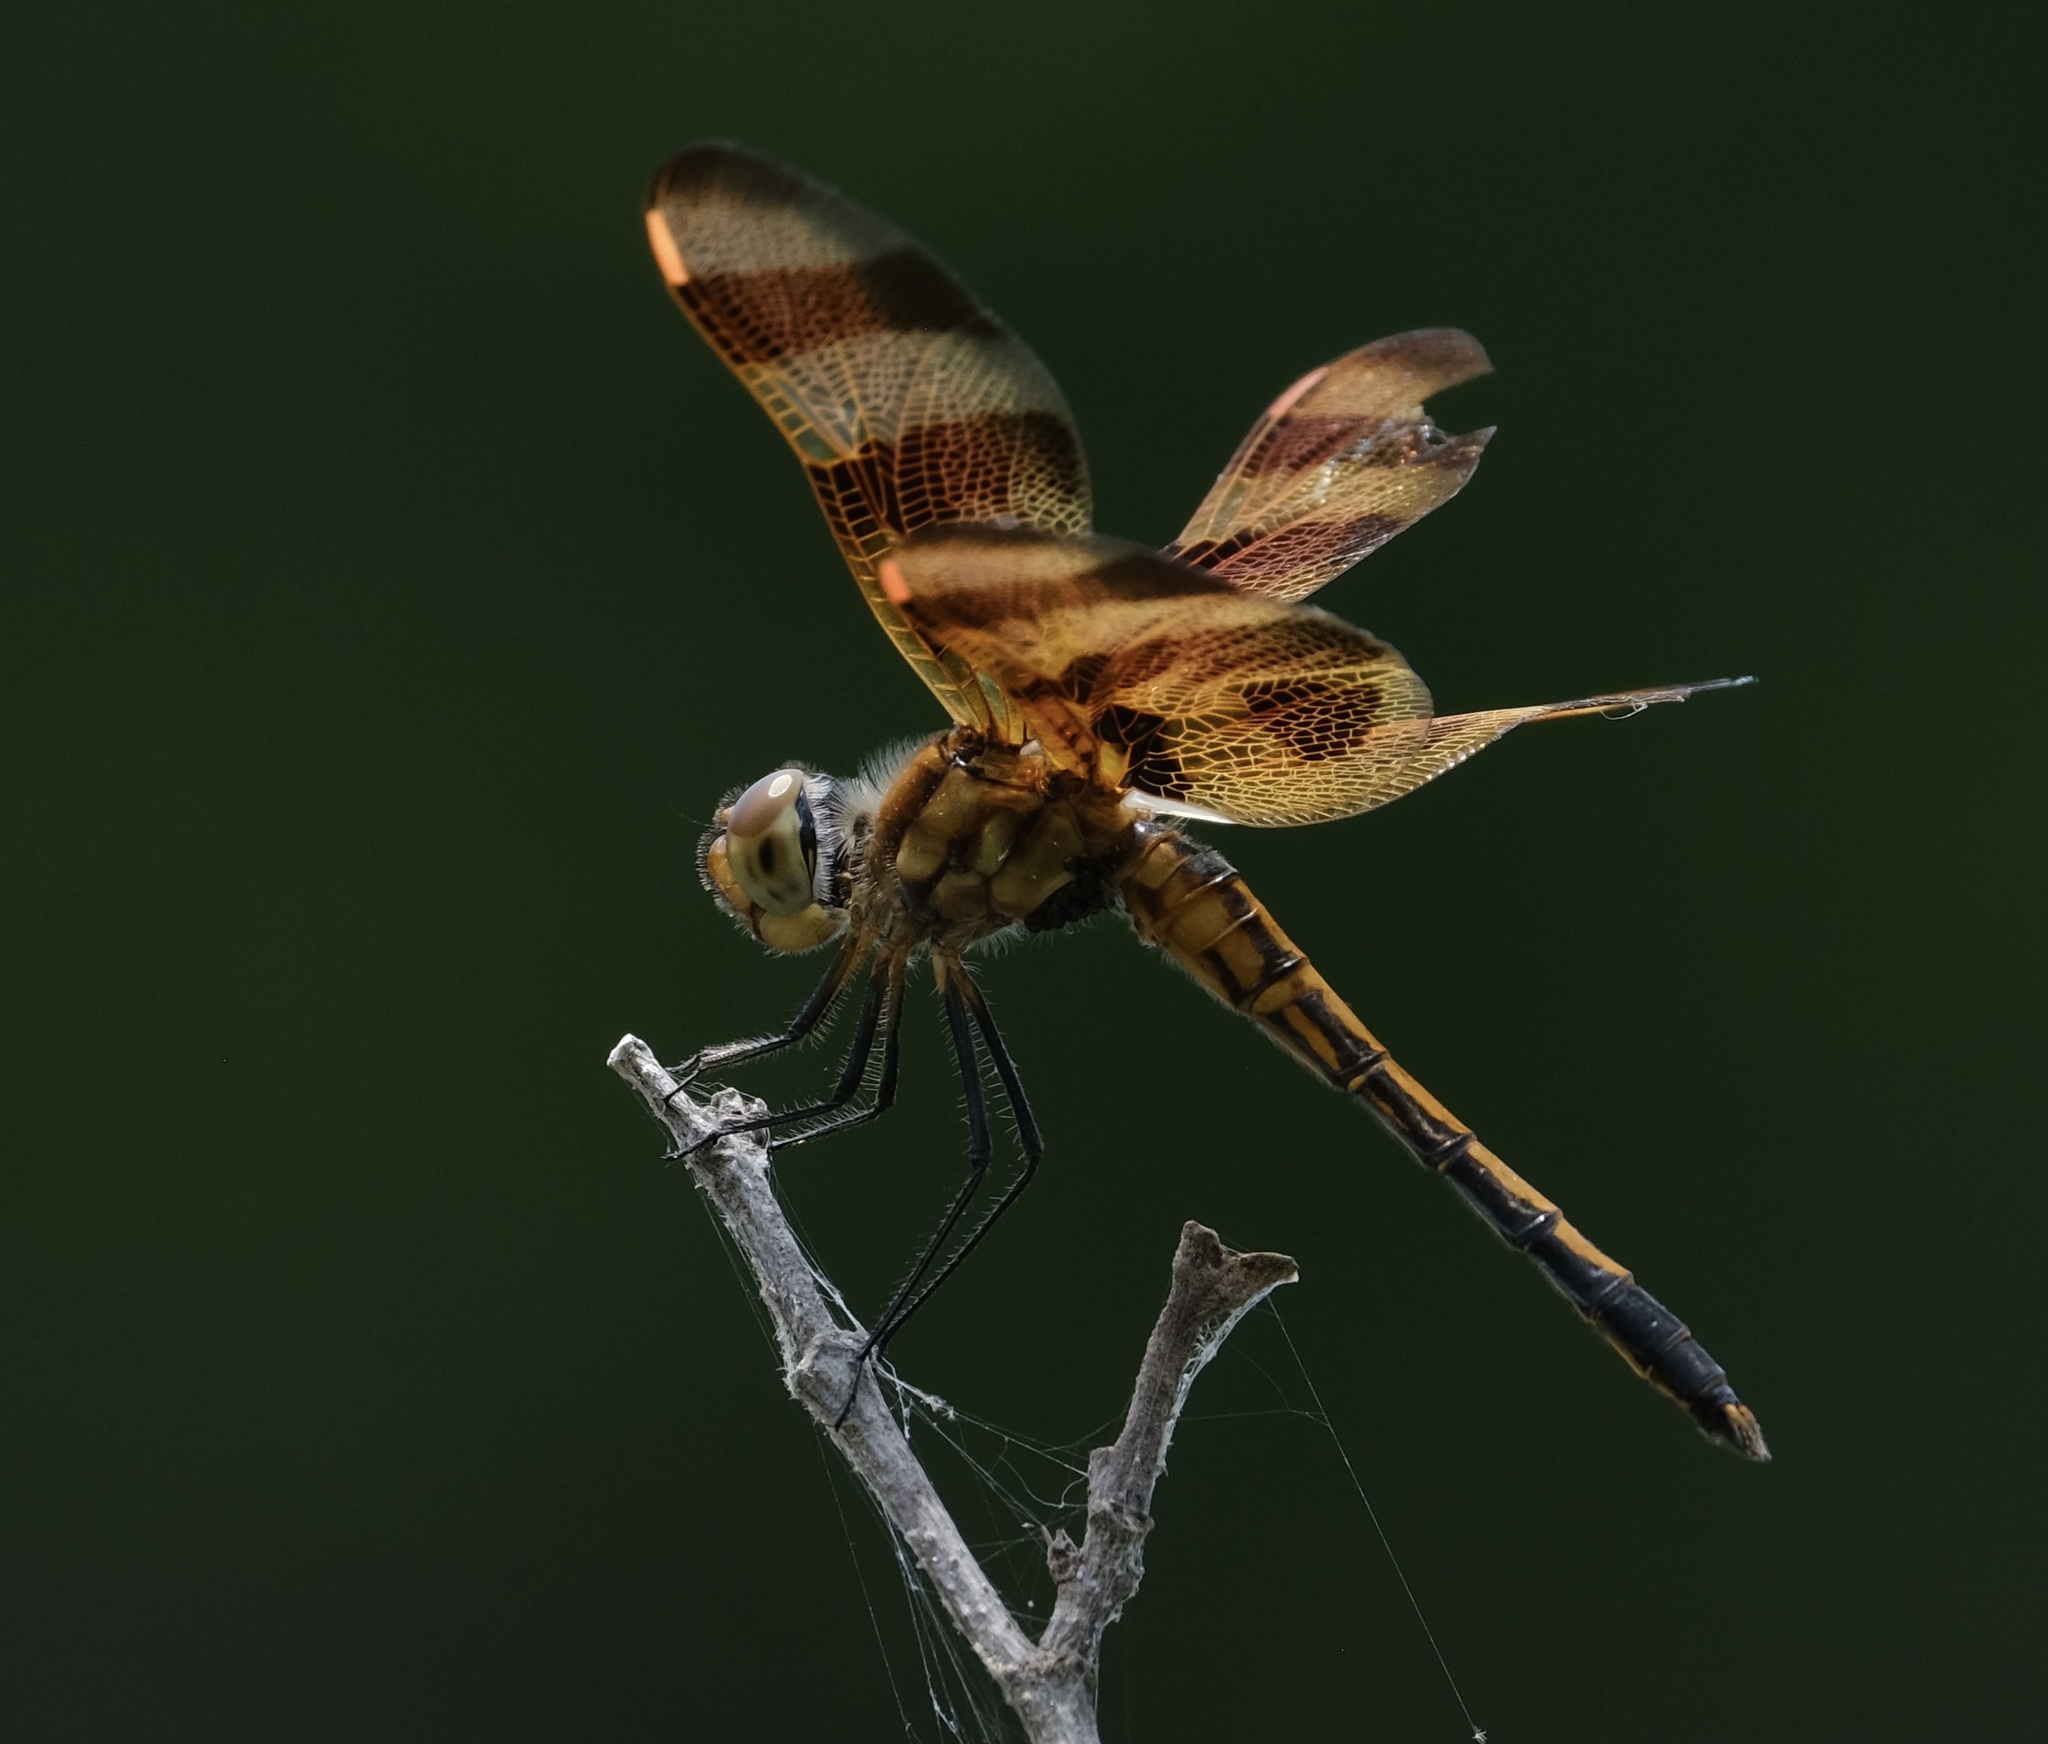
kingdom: Animalia
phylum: Arthropoda
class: Insecta
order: Odonata
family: Libellulidae
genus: Celithemis
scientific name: Celithemis eponina
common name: Halloween pennant
